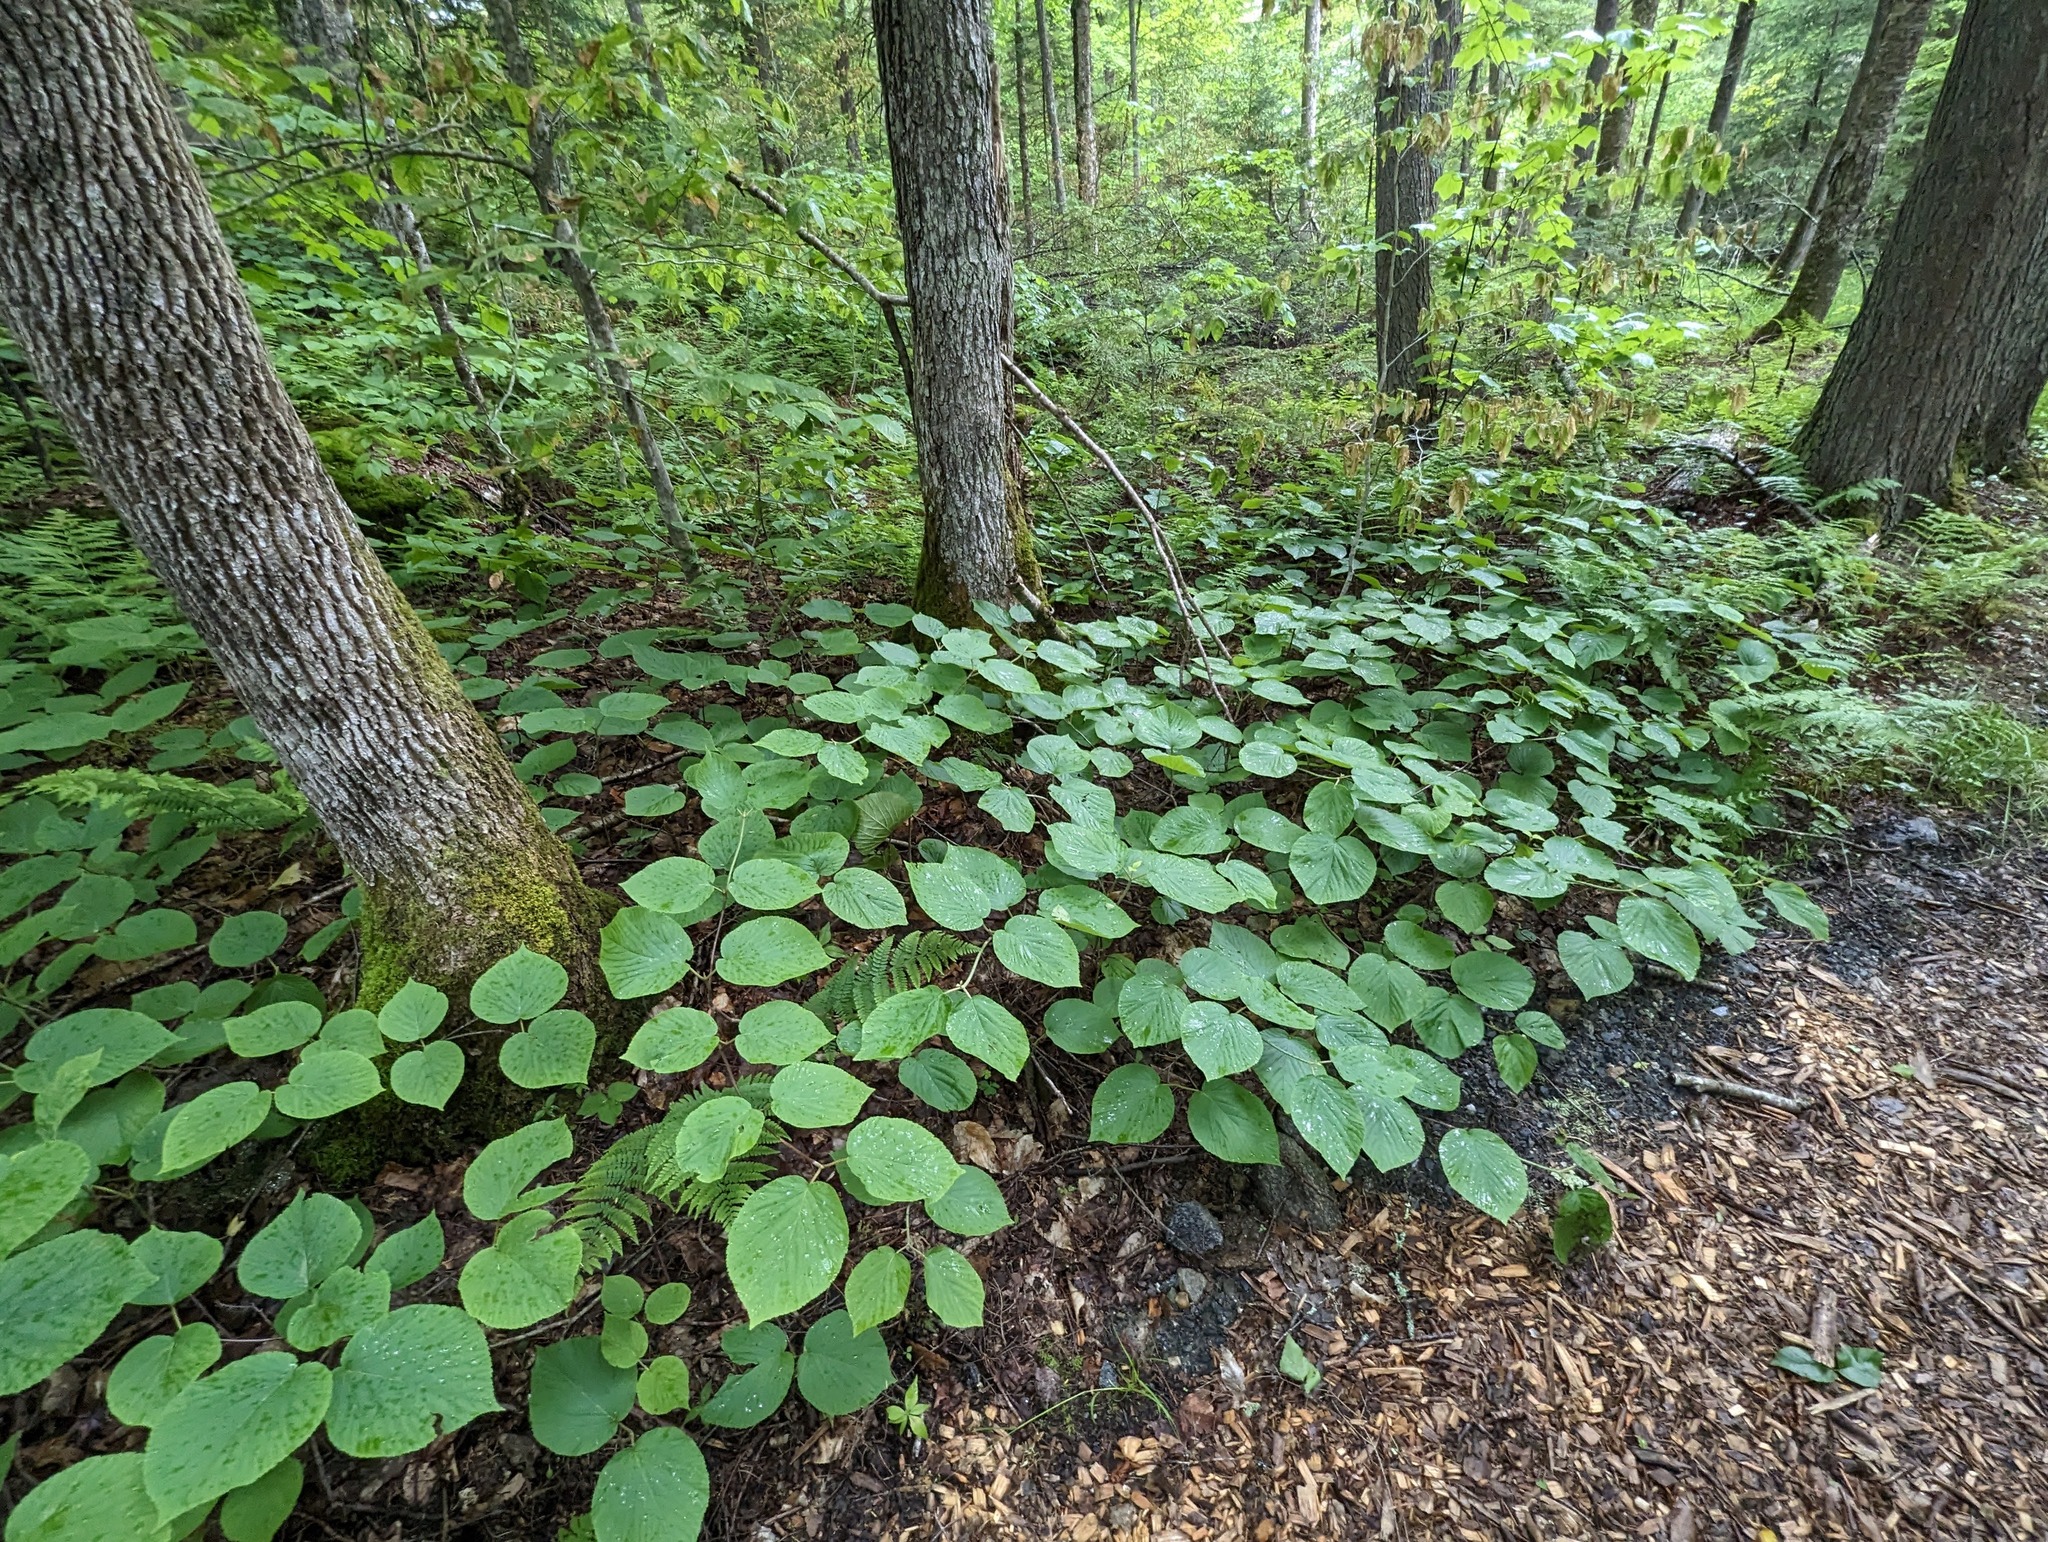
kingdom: Plantae
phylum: Tracheophyta
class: Magnoliopsida
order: Dipsacales
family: Viburnaceae
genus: Viburnum
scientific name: Viburnum lantanoides
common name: Hobblebush
